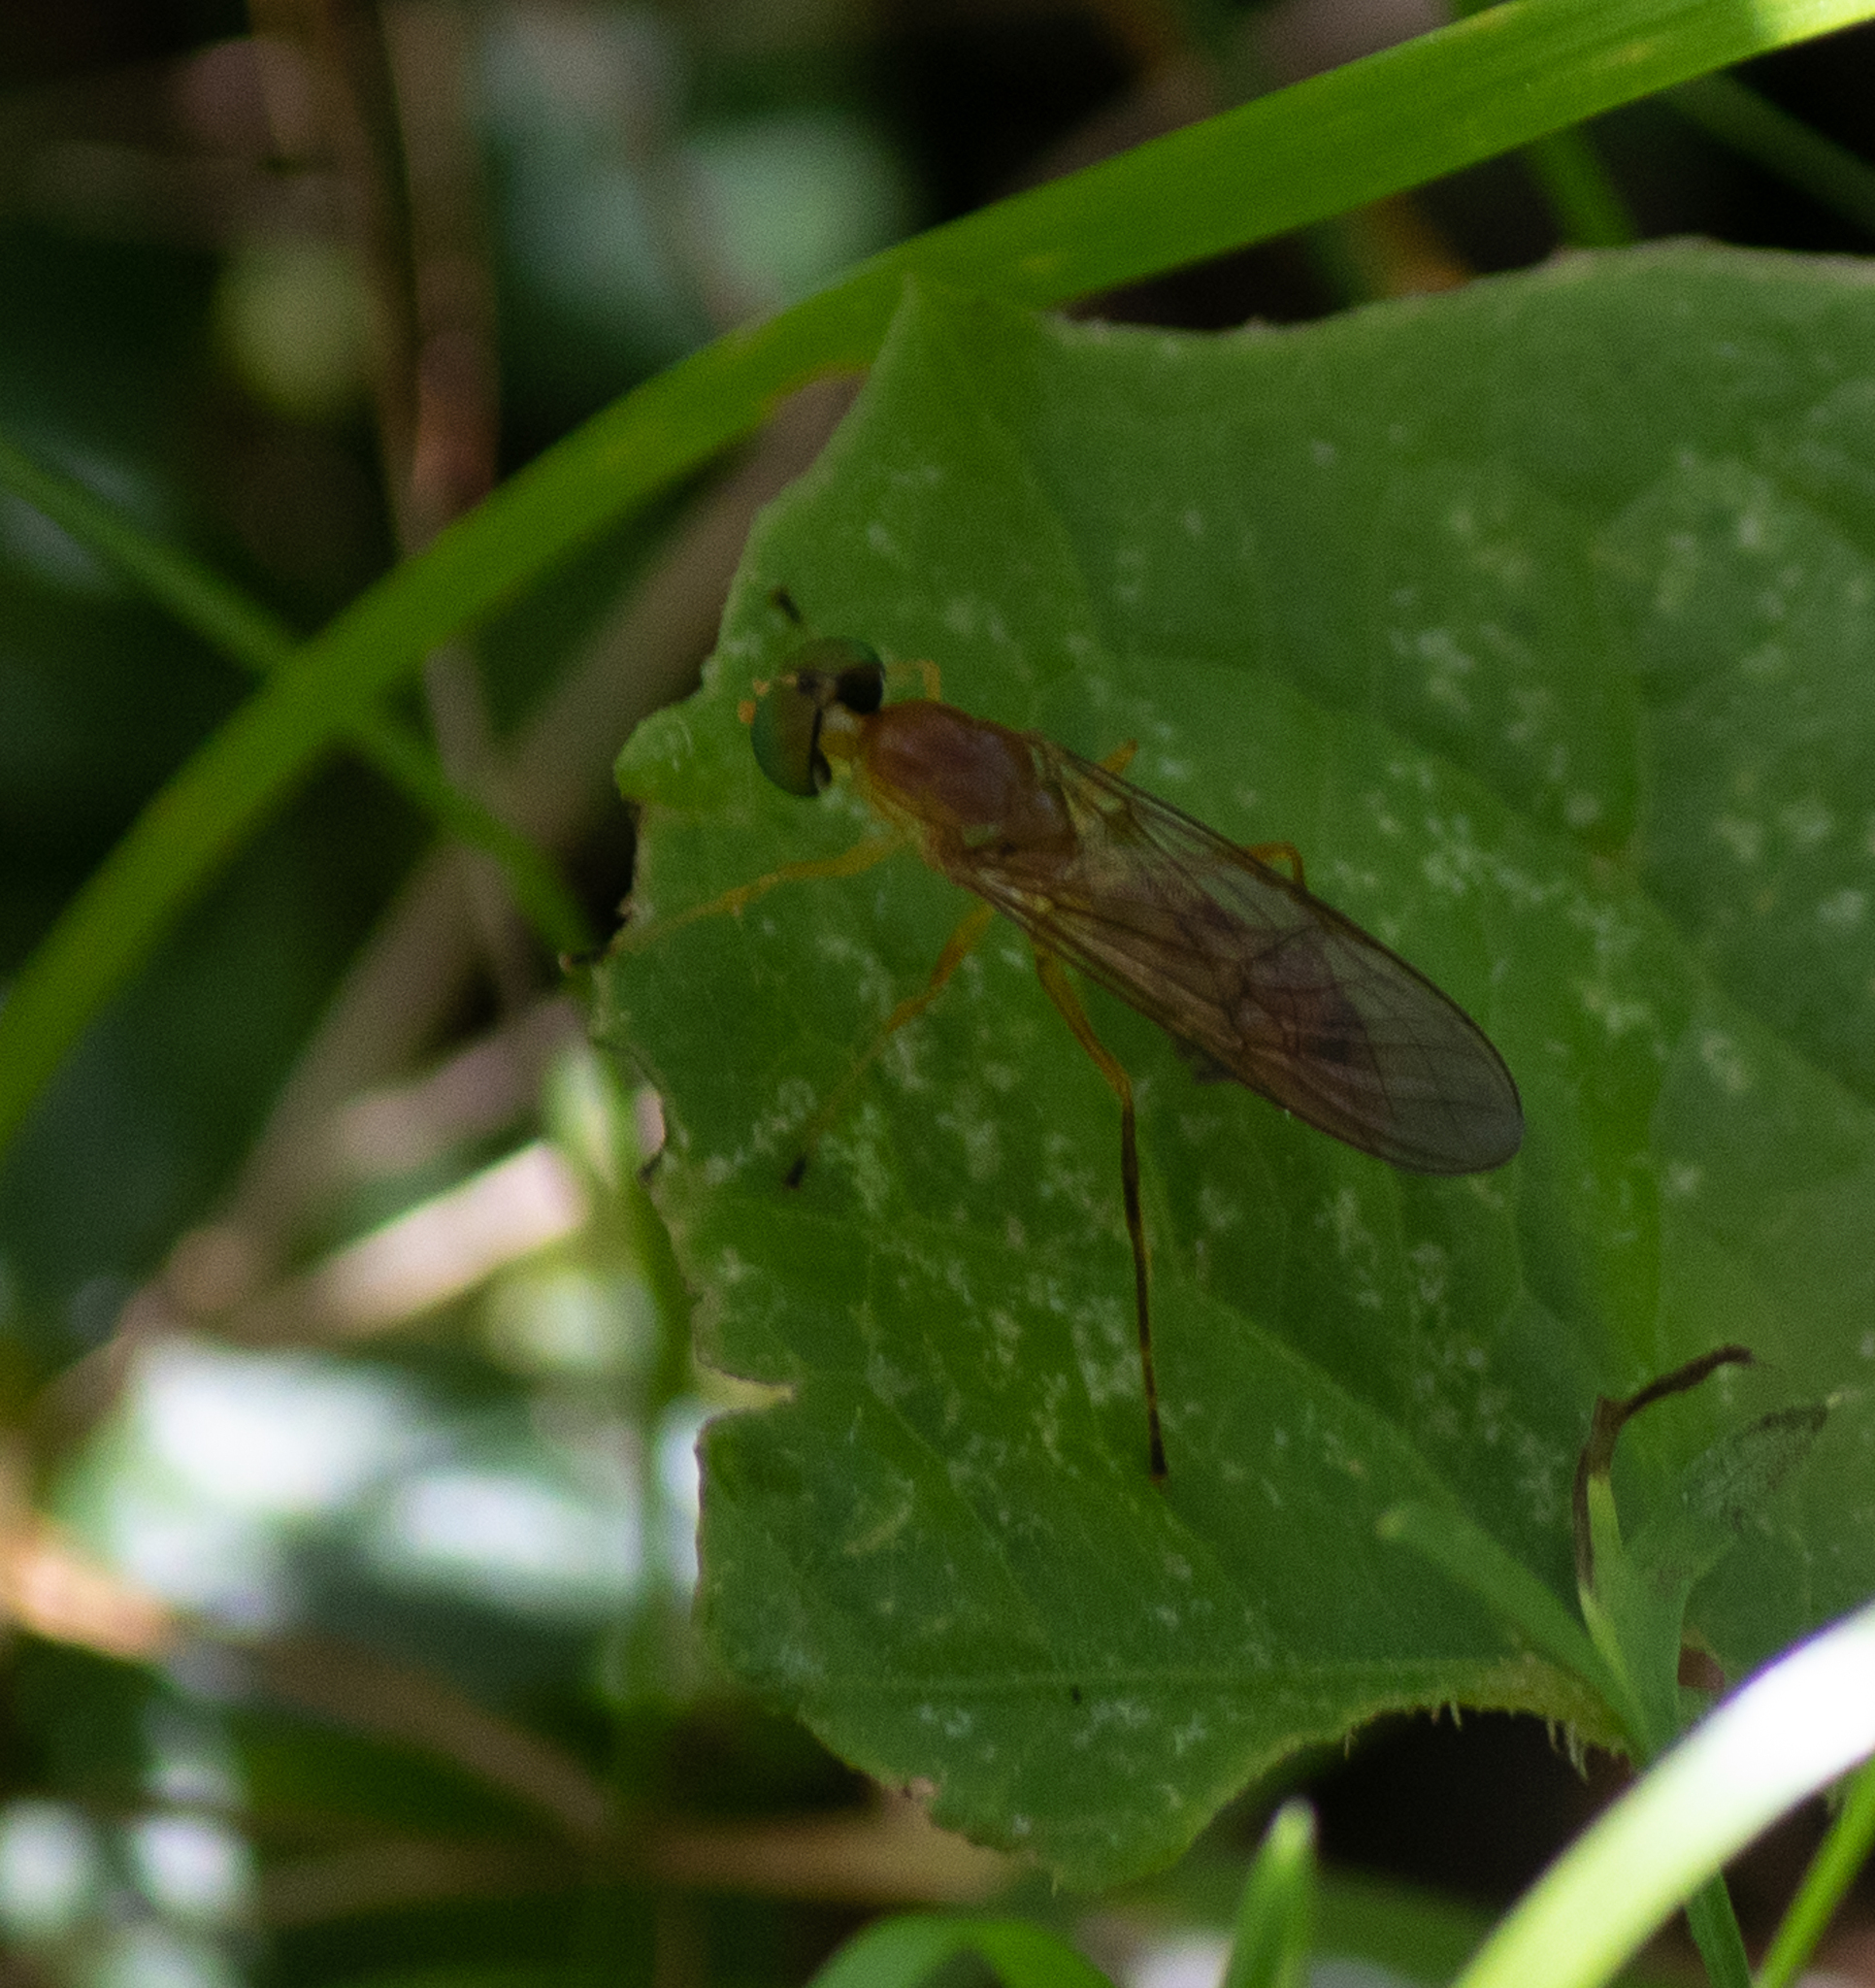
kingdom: Animalia
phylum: Arthropoda
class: Insecta
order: Diptera
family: Stratiomyidae
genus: Ptecticus
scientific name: Ptecticus trivittatus
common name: Compost fly
